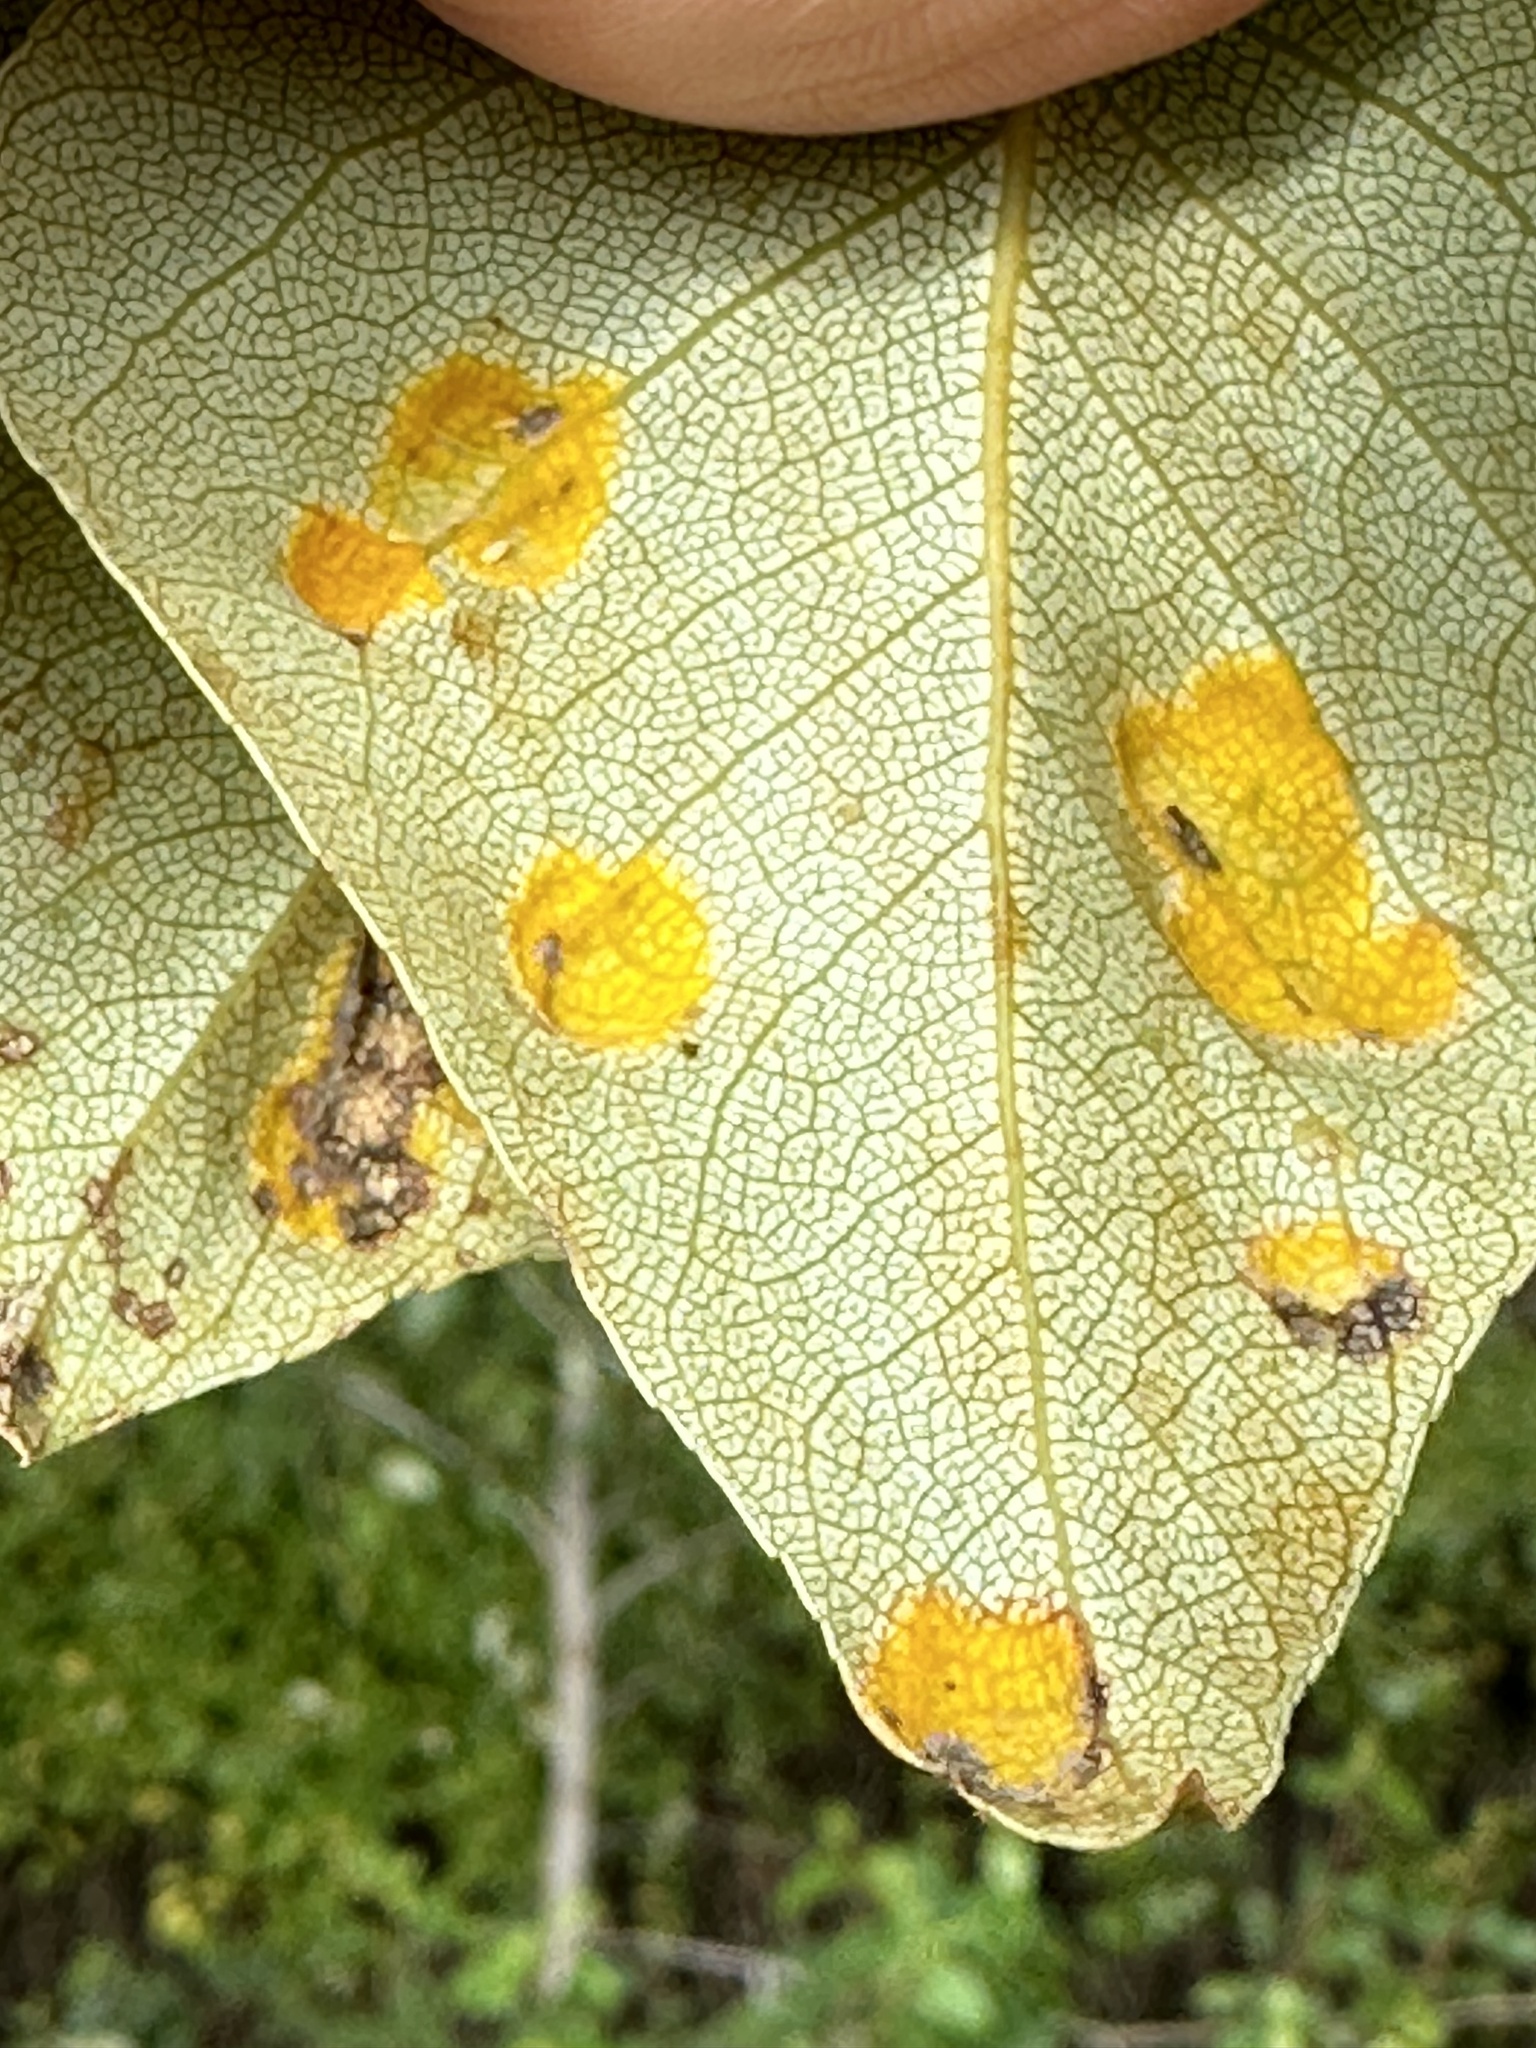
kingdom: Fungi
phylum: Ascomycota
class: Taphrinomycetes
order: Taphrinales
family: Taphrinaceae
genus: Taphrina
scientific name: Taphrina populi-salicis
